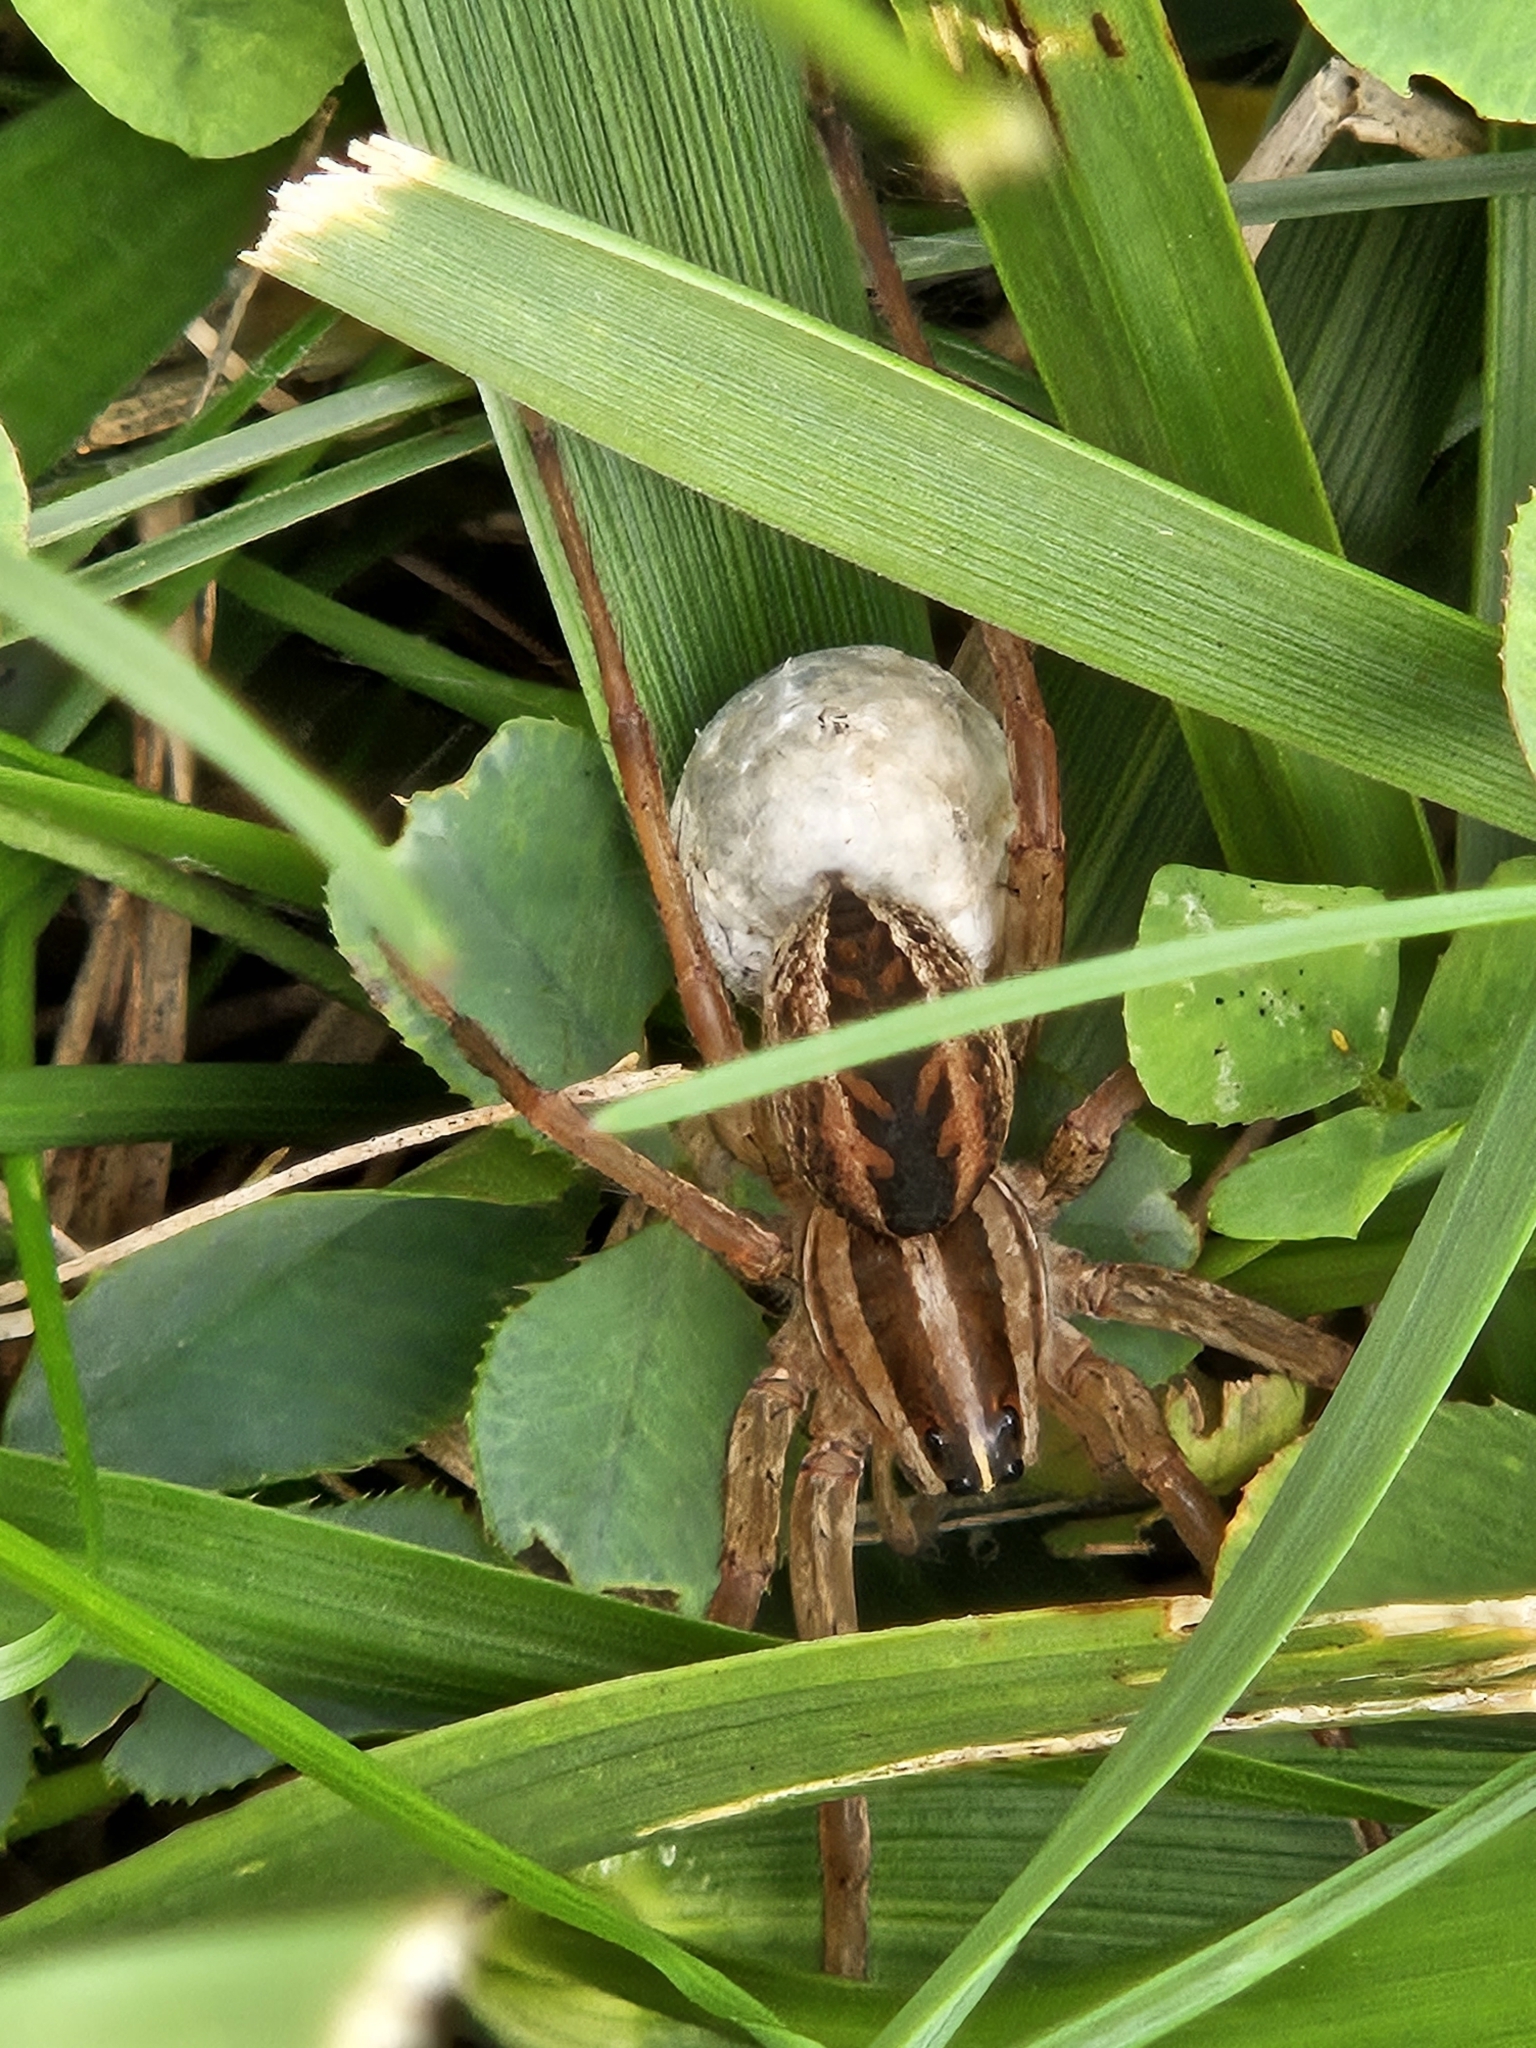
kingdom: Animalia
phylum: Arthropoda
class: Arachnida
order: Araneae
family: Lycosidae
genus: Rabidosa
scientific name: Rabidosa rabida
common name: Rabid wolf spider
